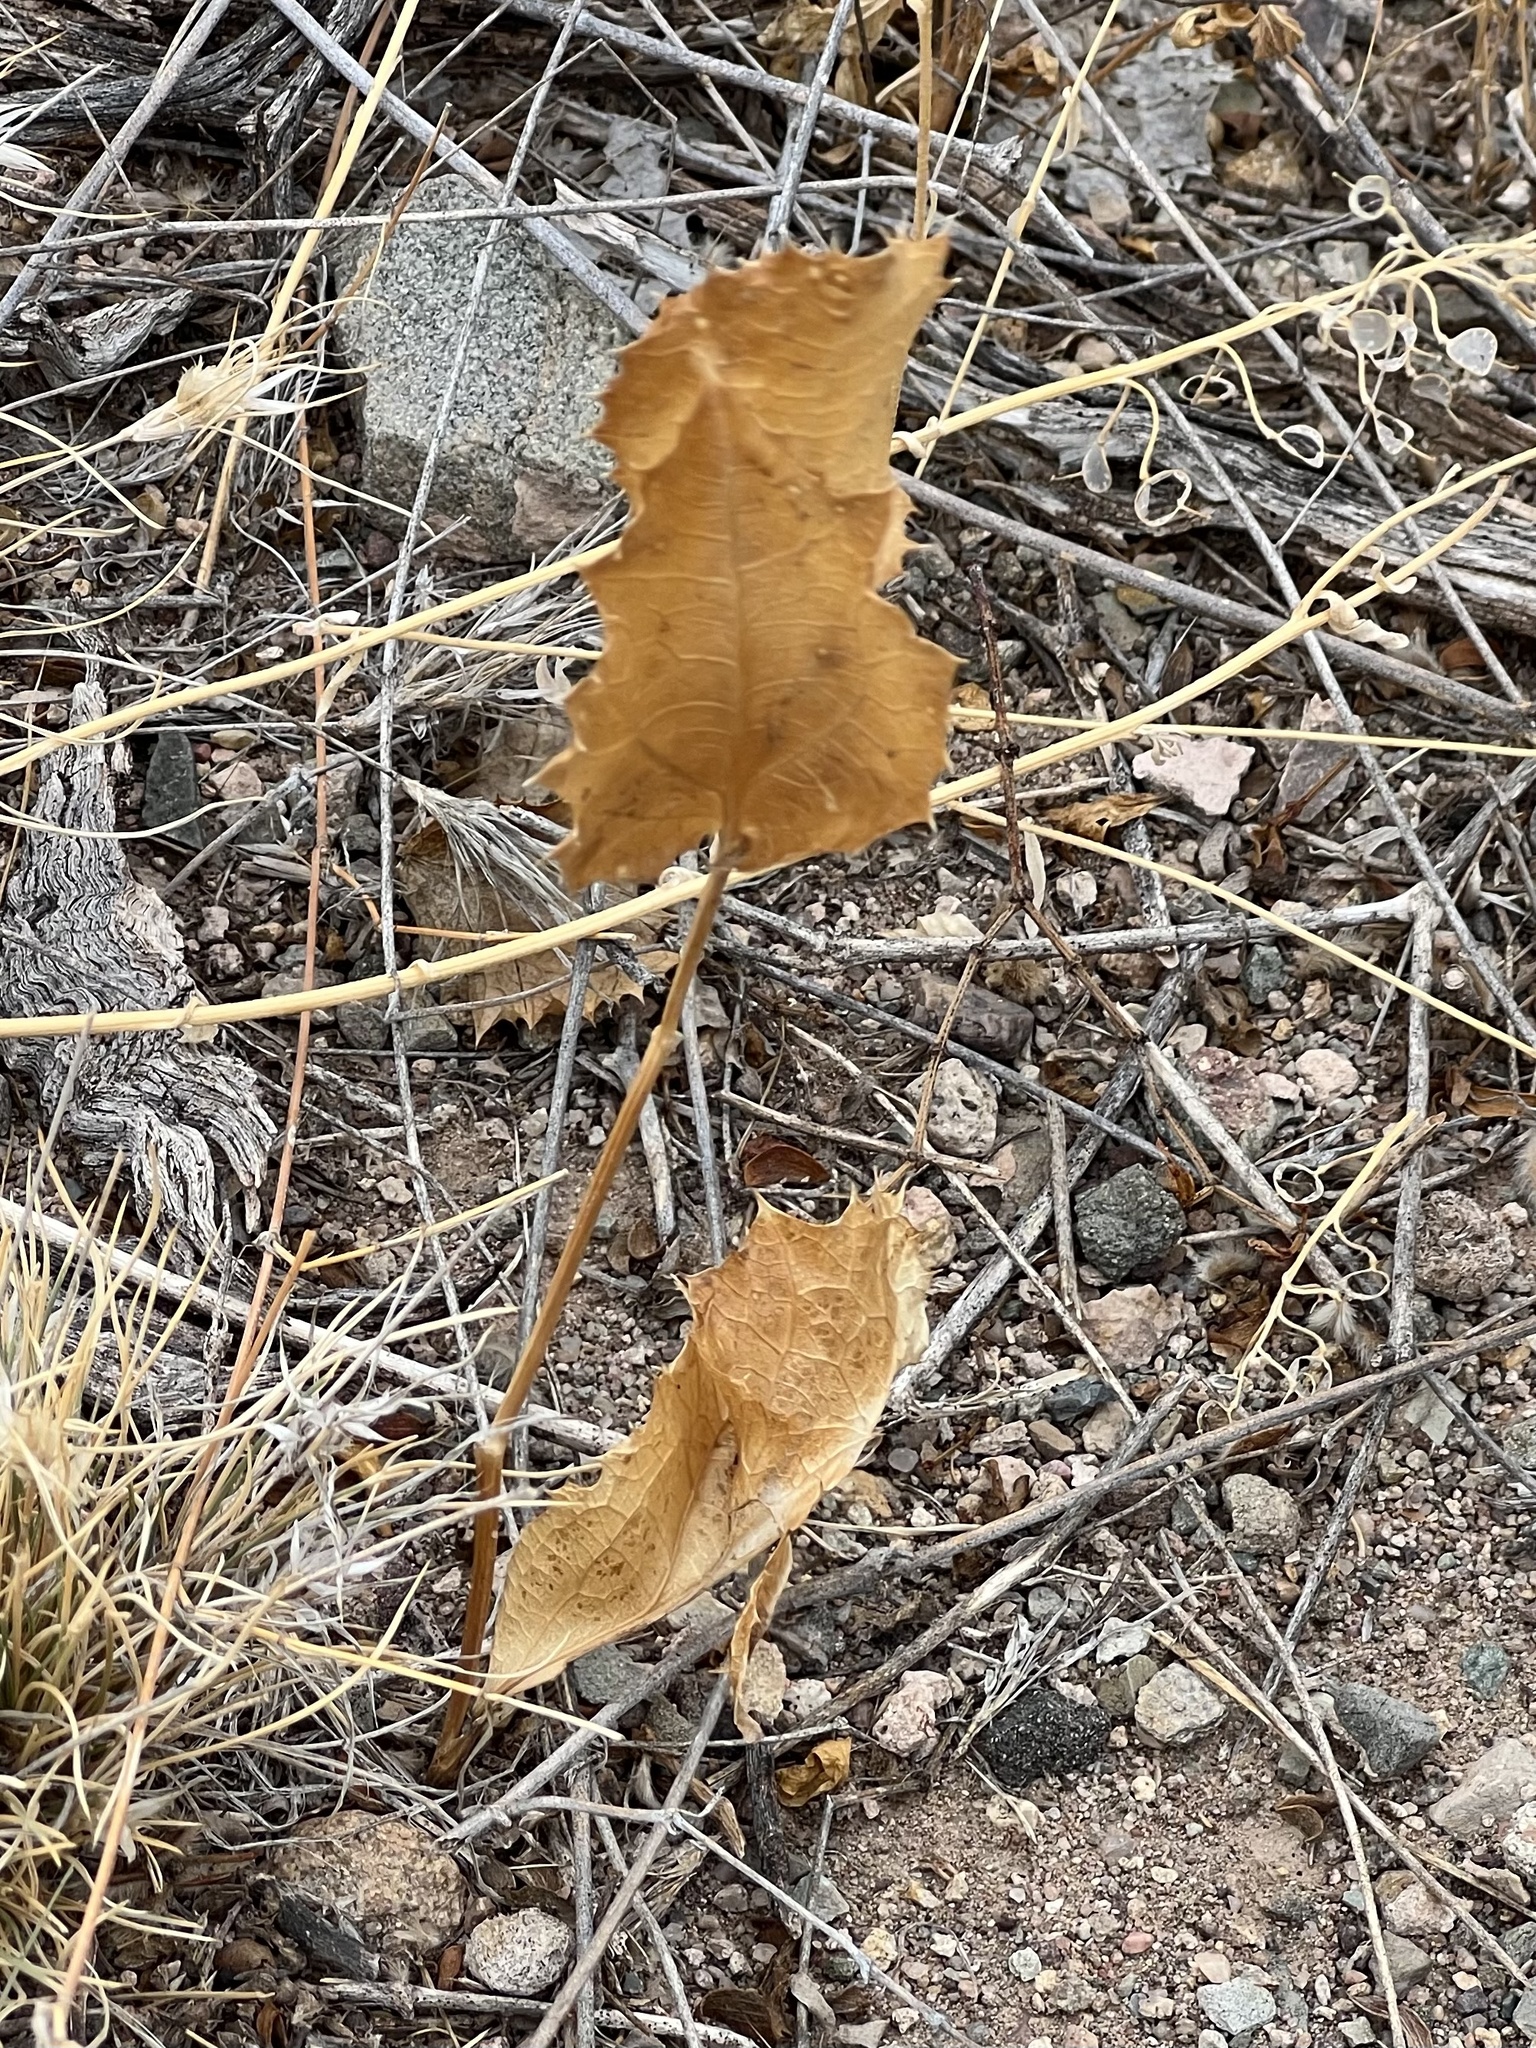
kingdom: Plantae
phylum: Tracheophyta
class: Magnoliopsida
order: Asterales
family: Asteraceae
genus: Acourtia
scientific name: Acourtia nana
